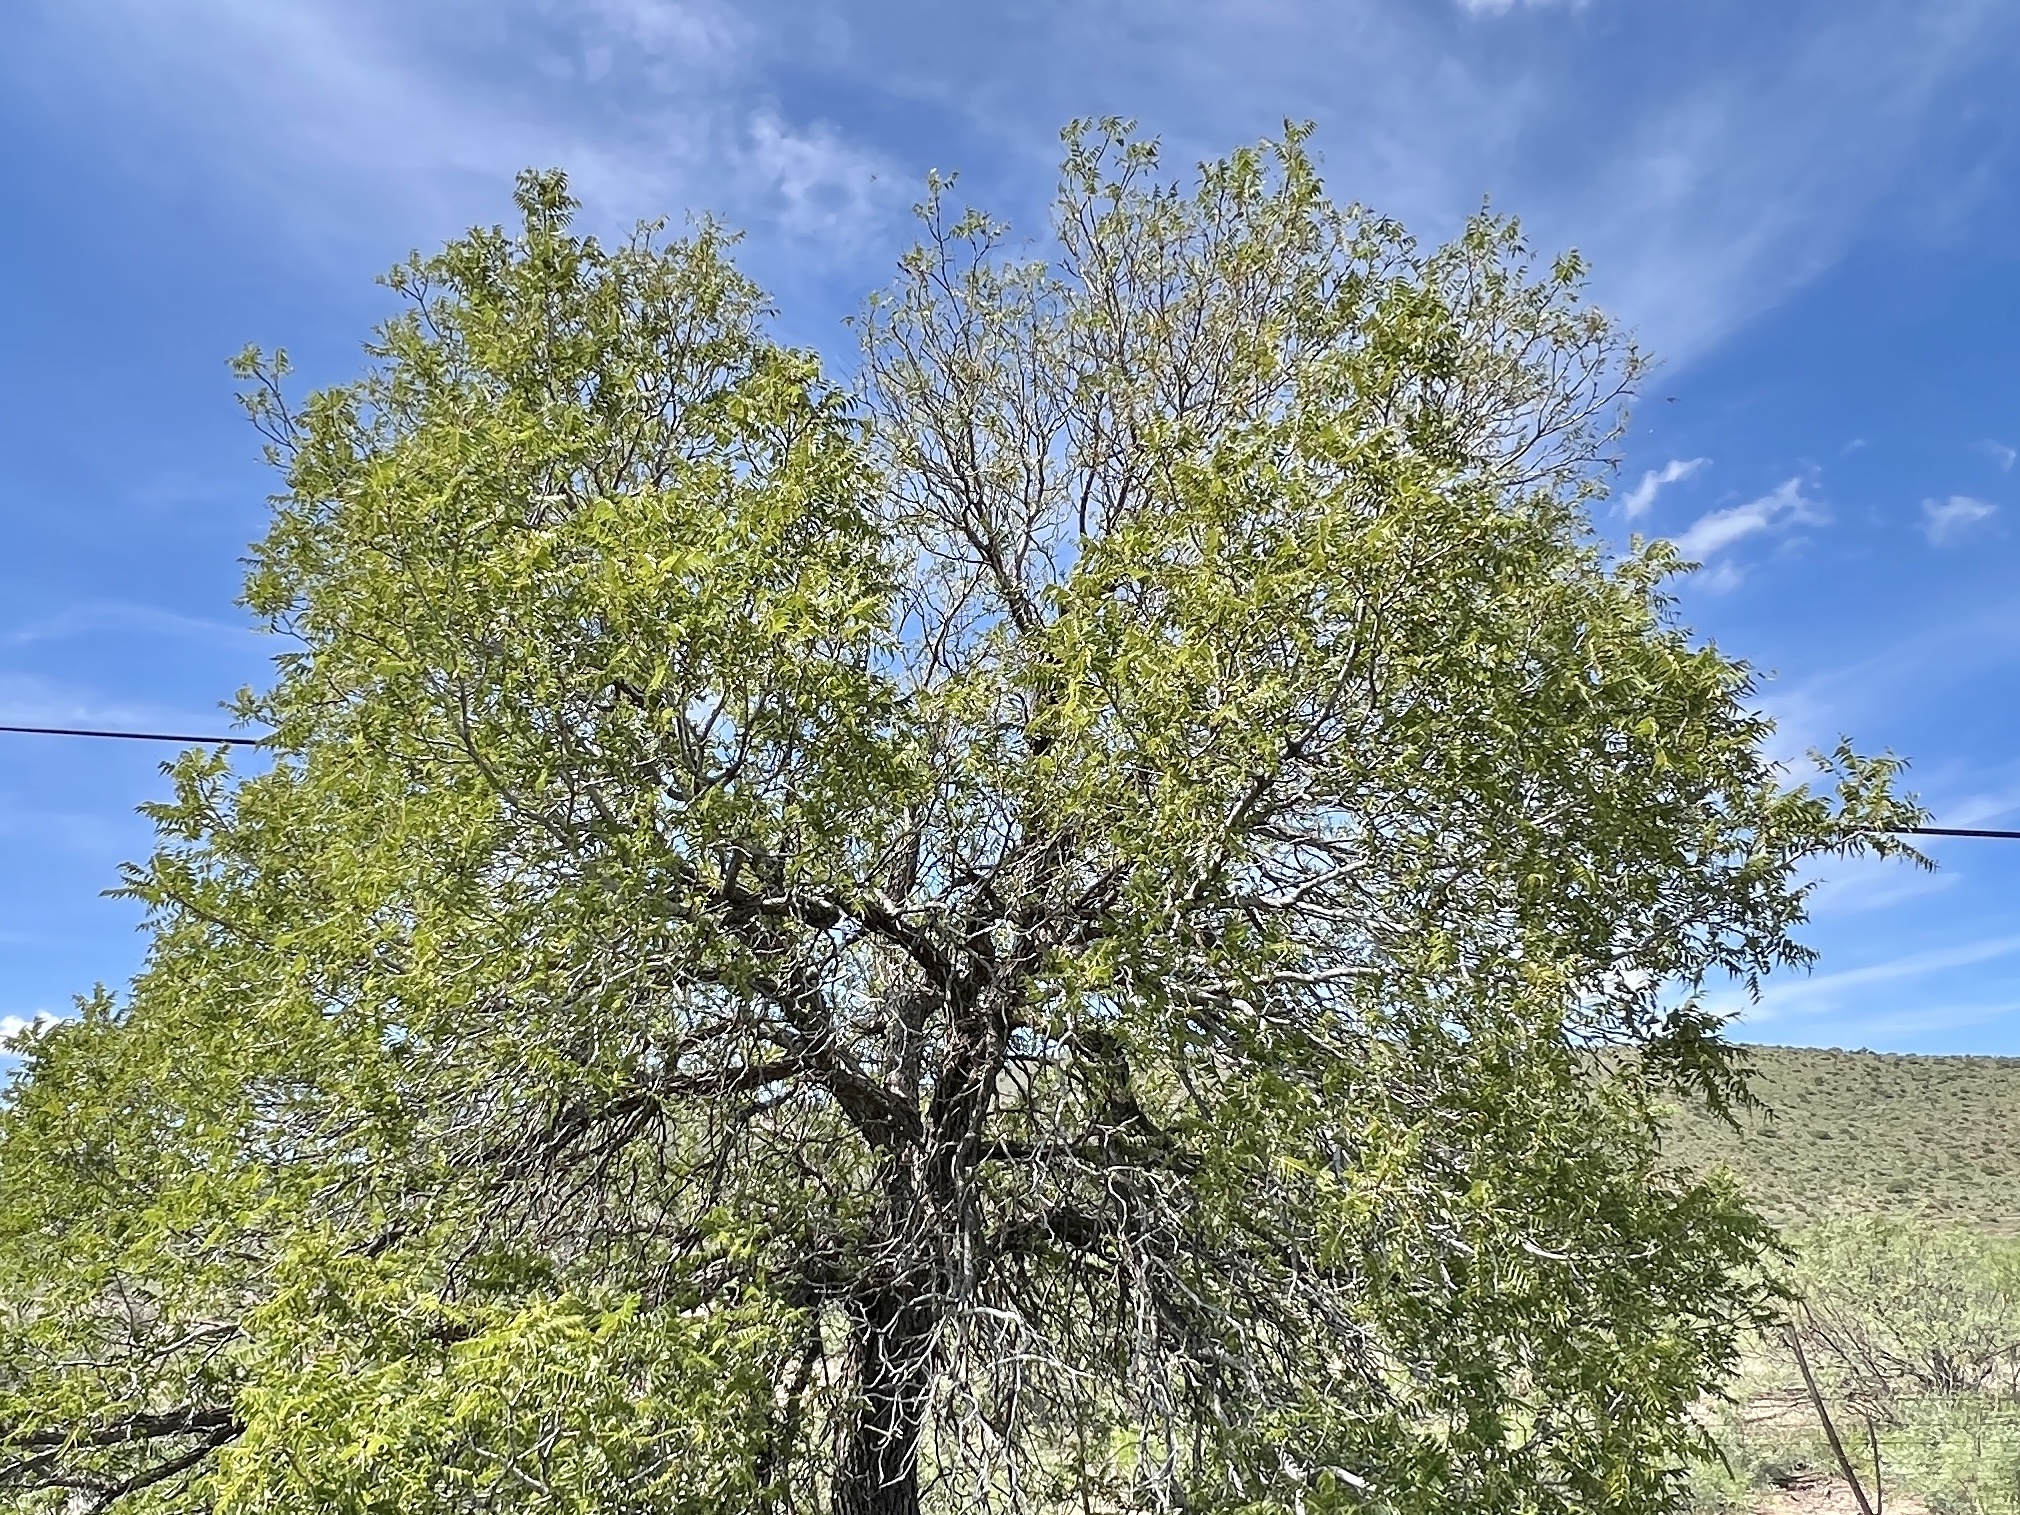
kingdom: Plantae
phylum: Tracheophyta
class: Magnoliopsida
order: Fagales
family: Juglandaceae
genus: Juglans
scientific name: Juglans microcarpa
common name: Texas walnut
